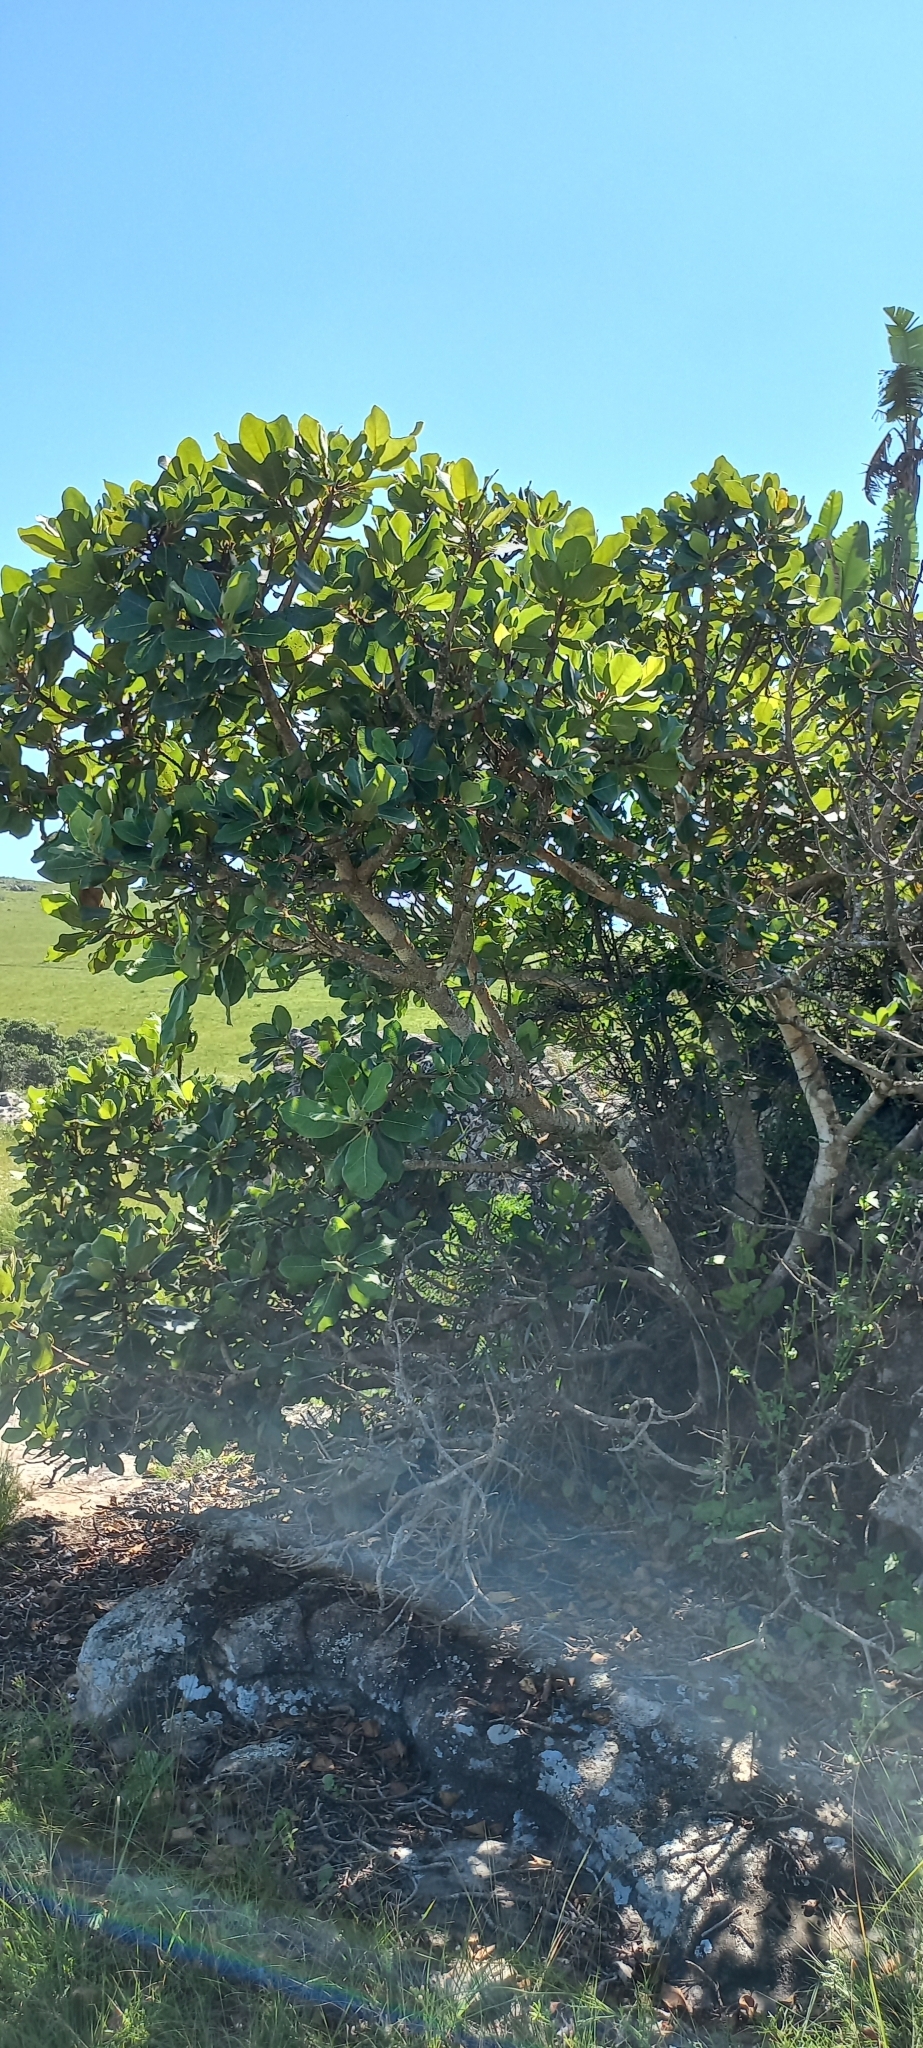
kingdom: Plantae
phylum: Tracheophyta
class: Magnoliopsida
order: Rosales
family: Moraceae
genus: Ficus
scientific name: Ficus glumosa
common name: Hairy rock fig
